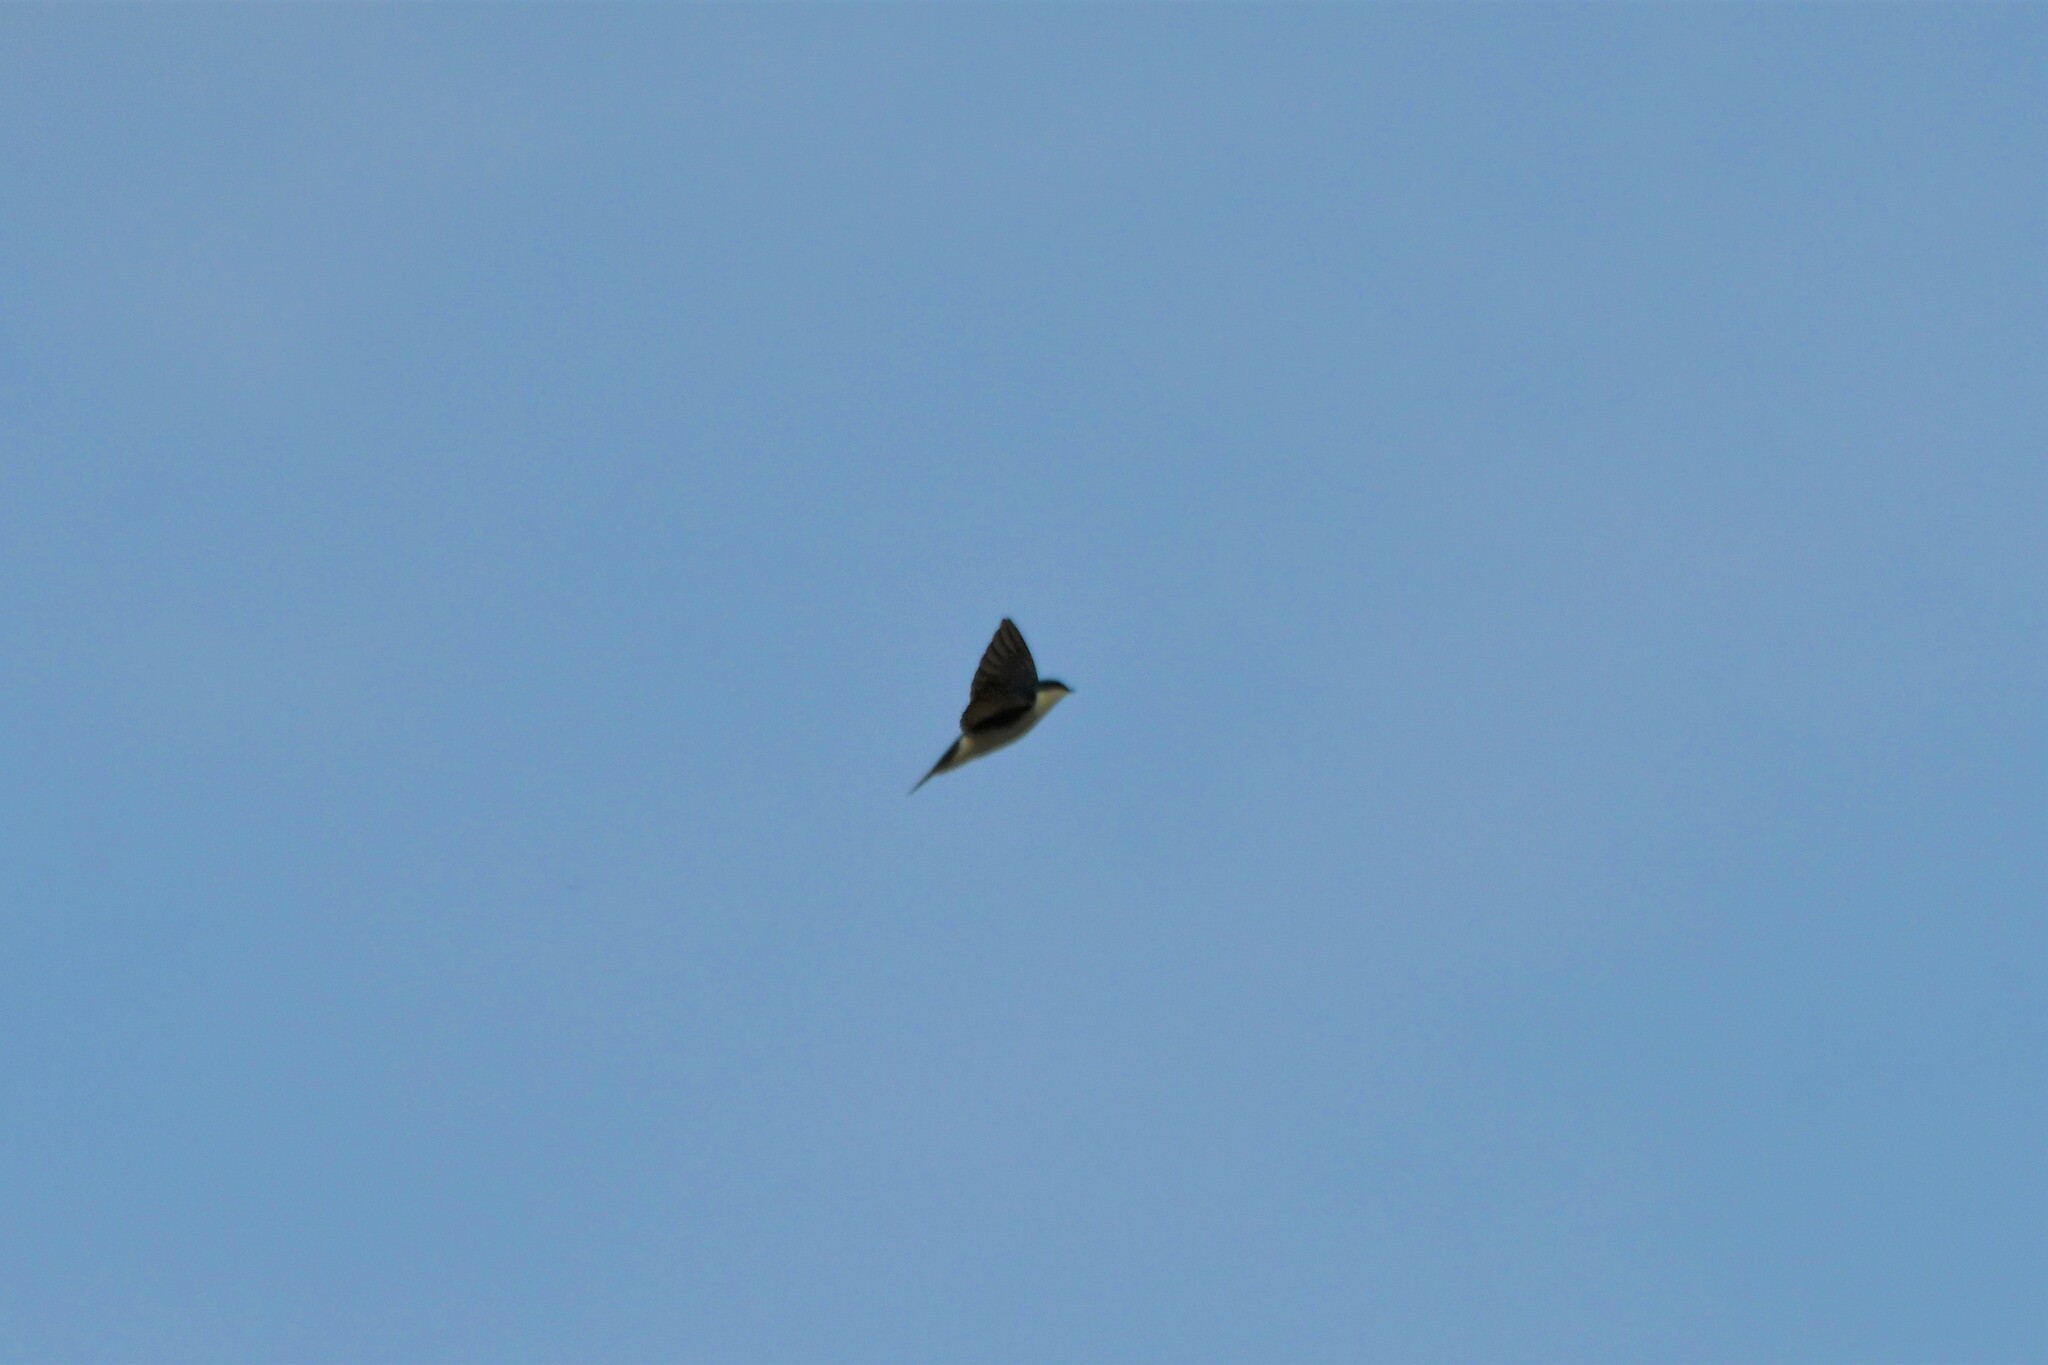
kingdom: Animalia
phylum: Chordata
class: Aves
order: Passeriformes
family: Hirundinidae
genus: Tachycineta
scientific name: Tachycineta bicolor
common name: Tree swallow
